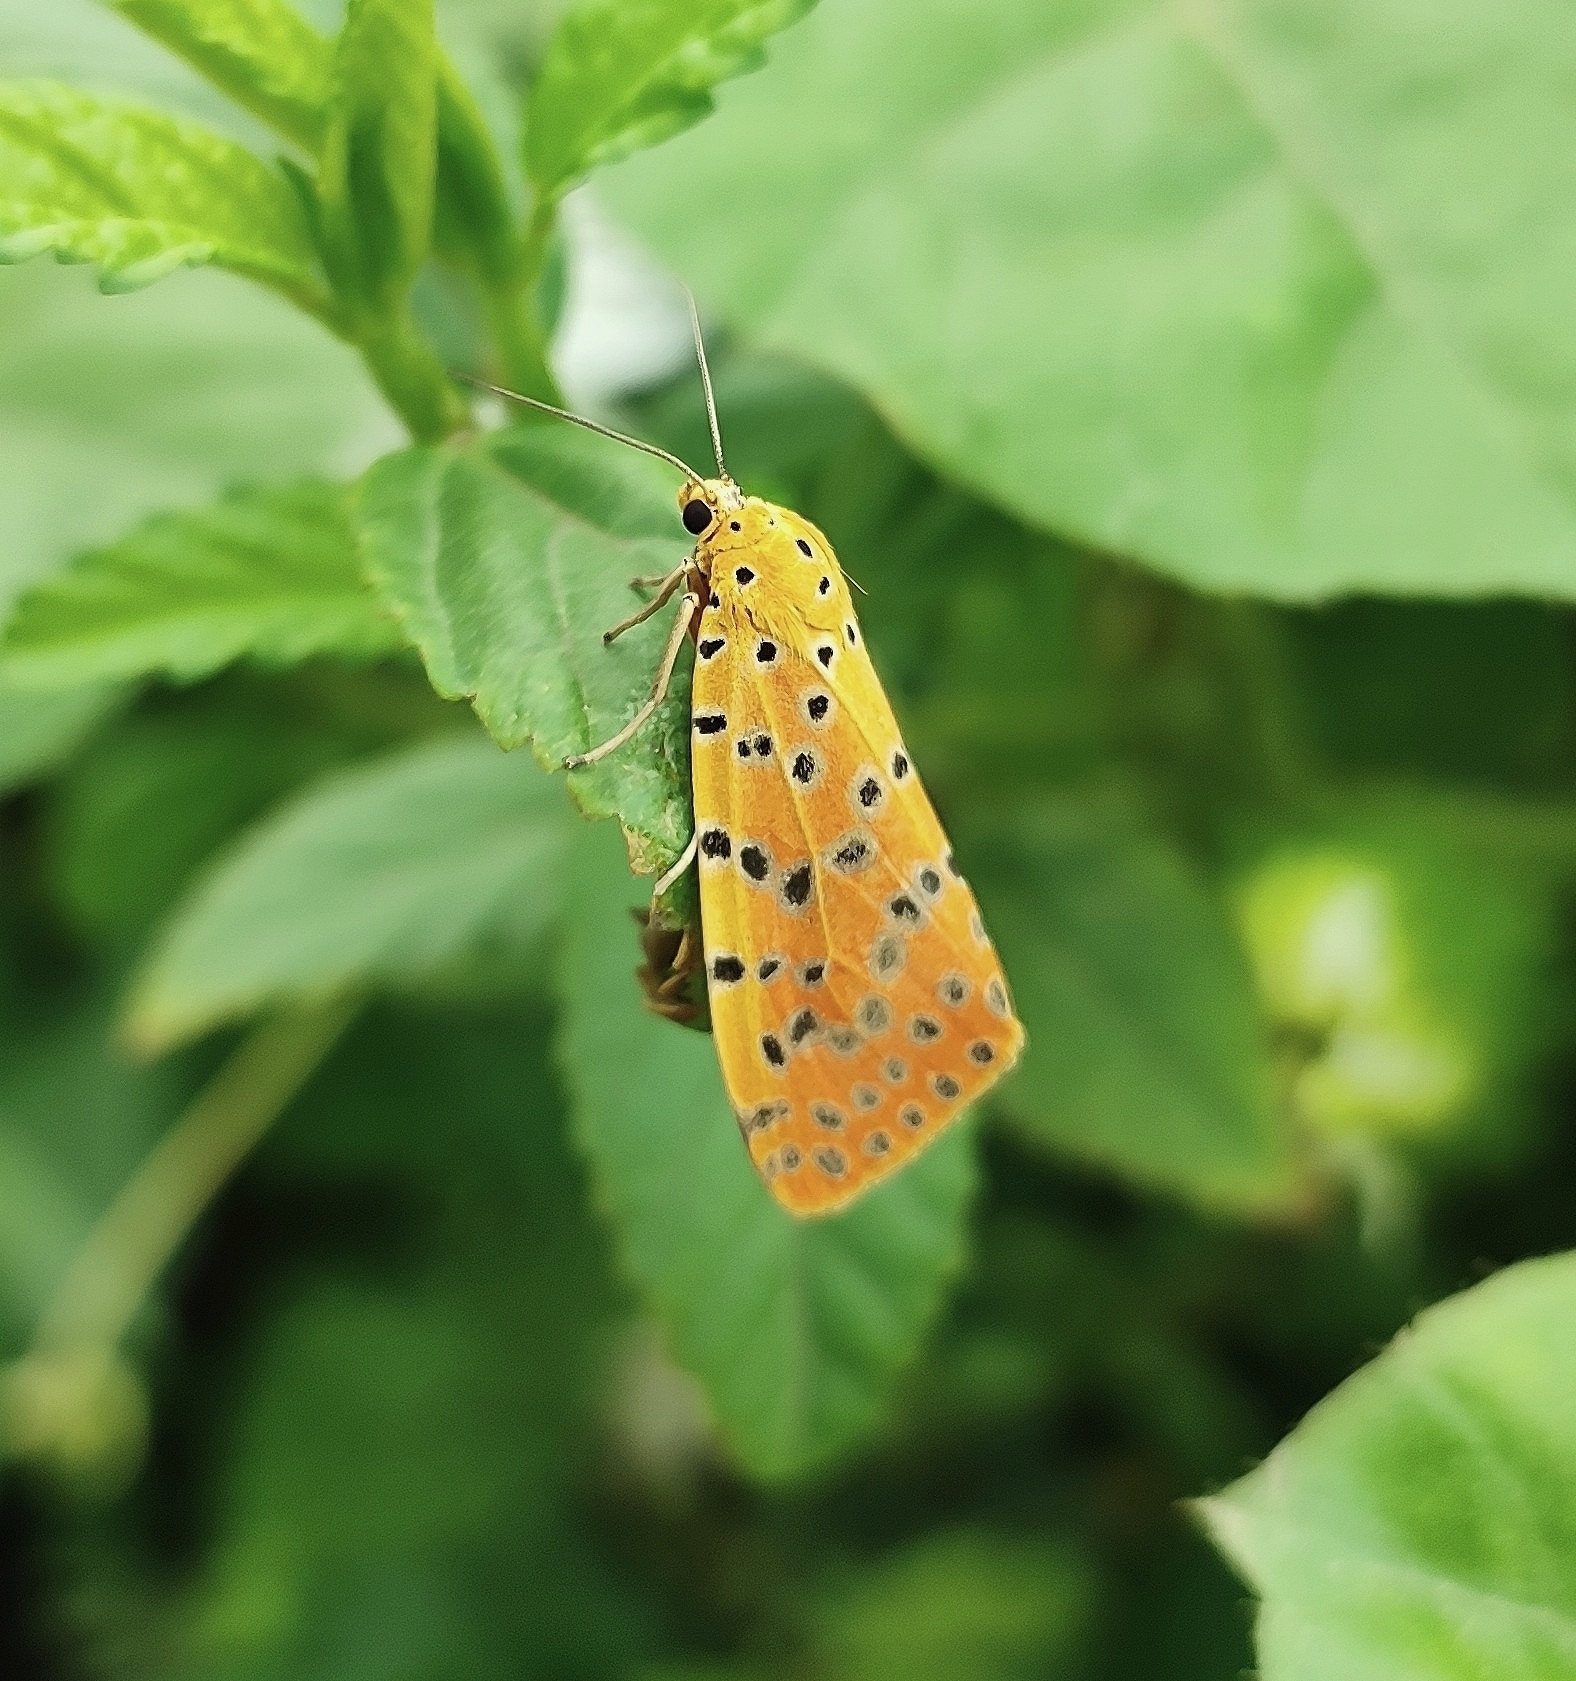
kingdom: Animalia
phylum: Arthropoda
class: Insecta
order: Lepidoptera
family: Erebidae
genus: Argina
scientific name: Argina astrea
